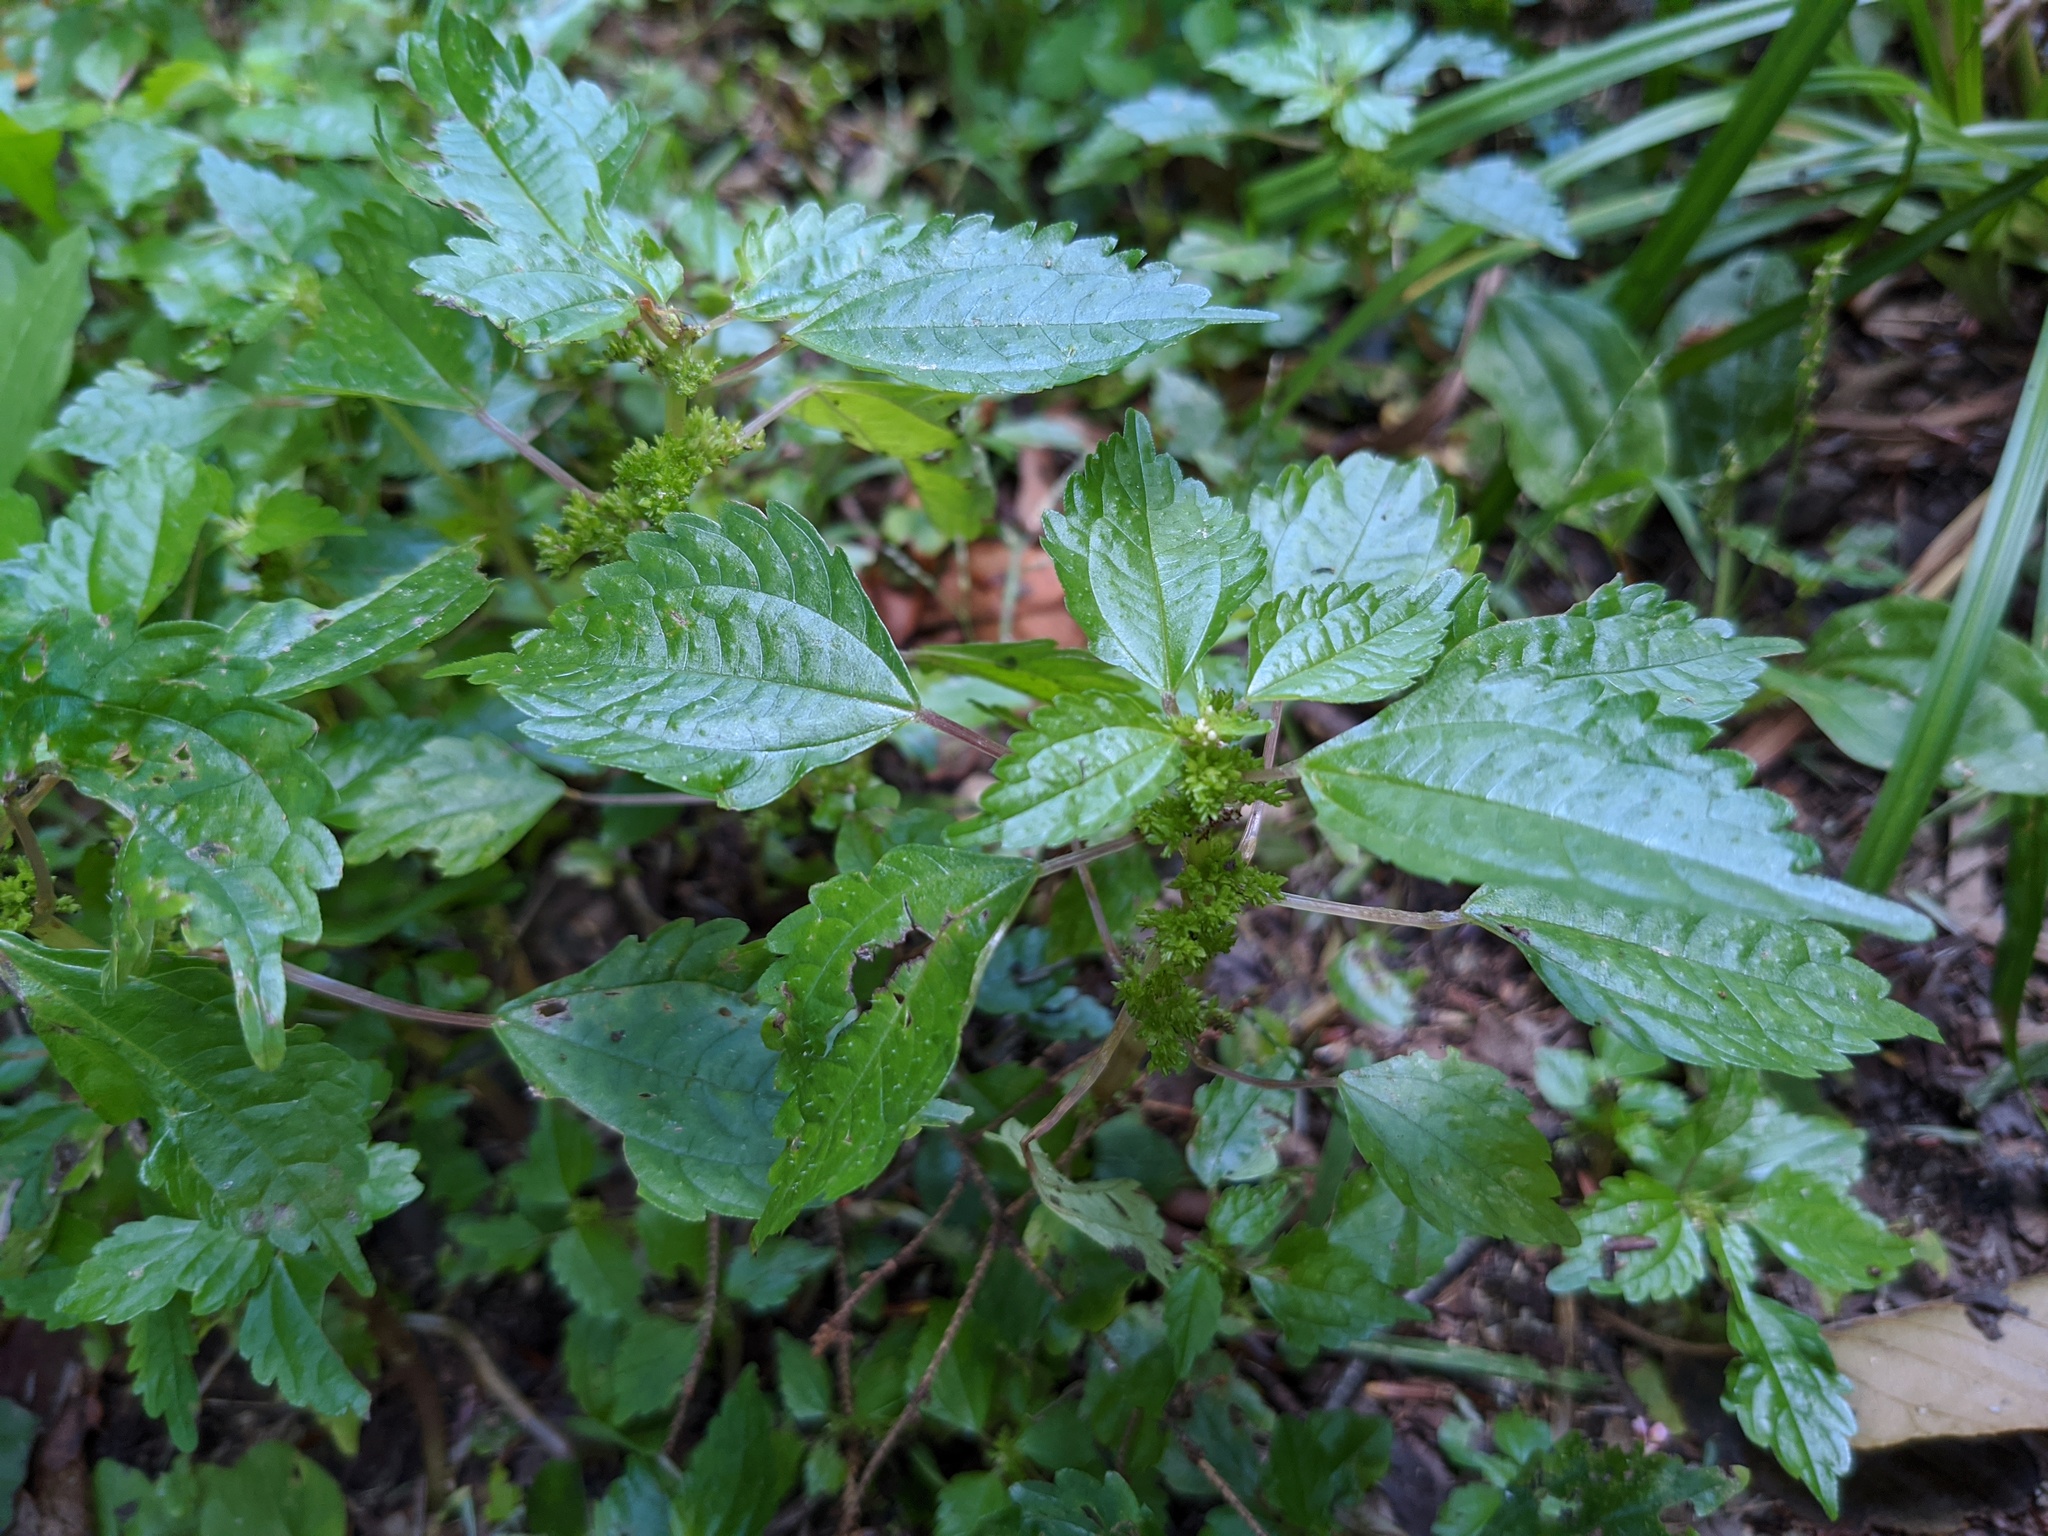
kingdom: Plantae
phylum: Tracheophyta
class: Magnoliopsida
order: Rosales
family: Urticaceae
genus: Pilea
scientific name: Pilea pumila
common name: Clearweed
